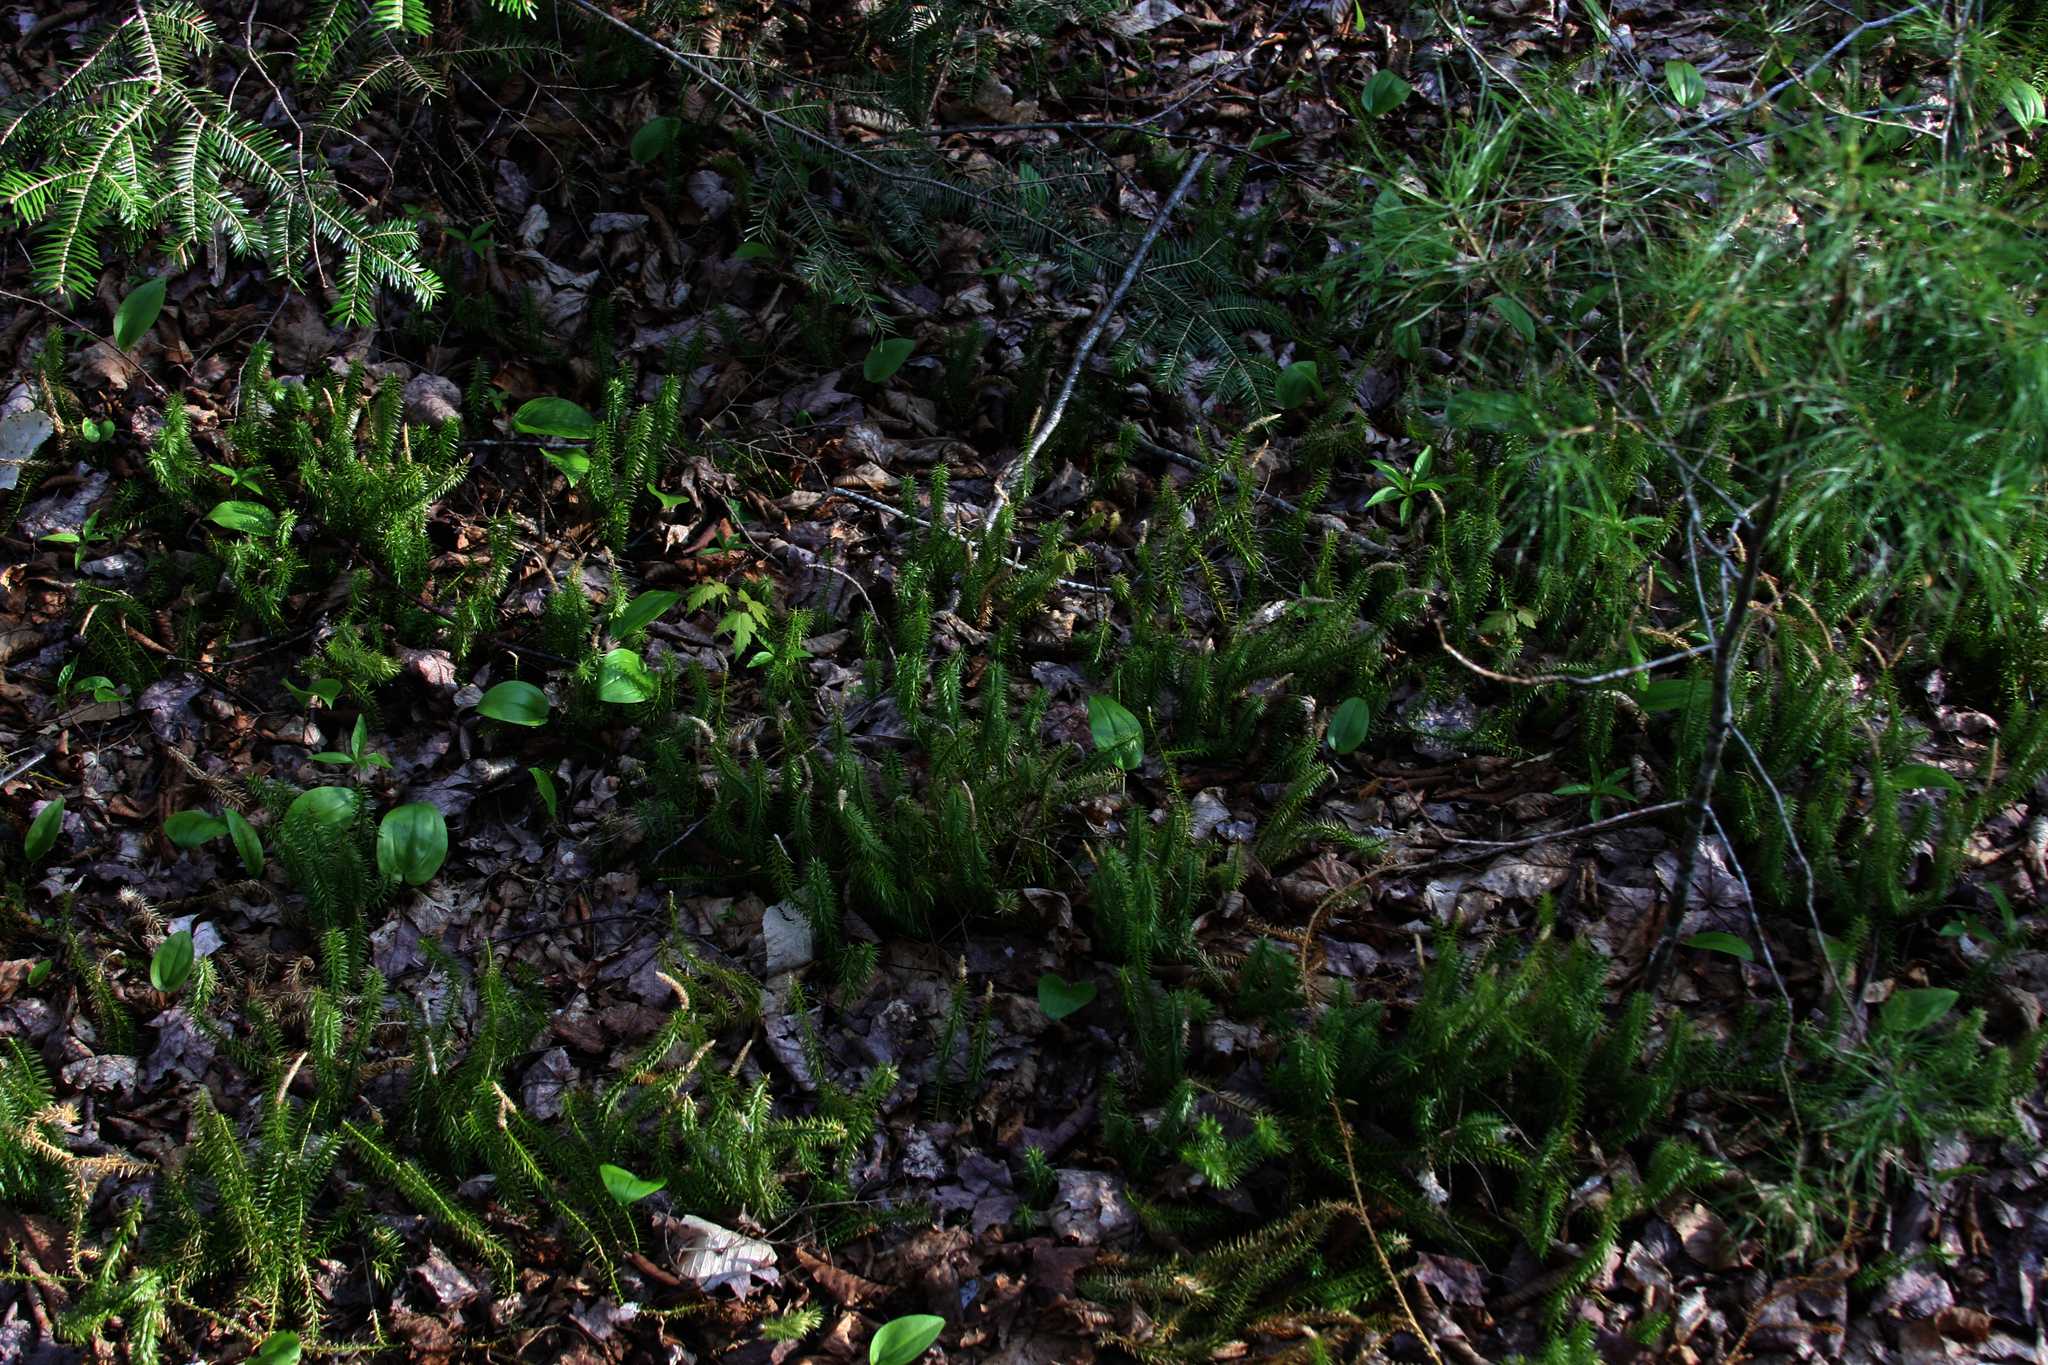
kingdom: Plantae
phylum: Tracheophyta
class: Liliopsida
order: Asparagales
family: Asparagaceae
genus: Maianthemum
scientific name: Maianthemum canadense
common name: False lily-of-the-valley
